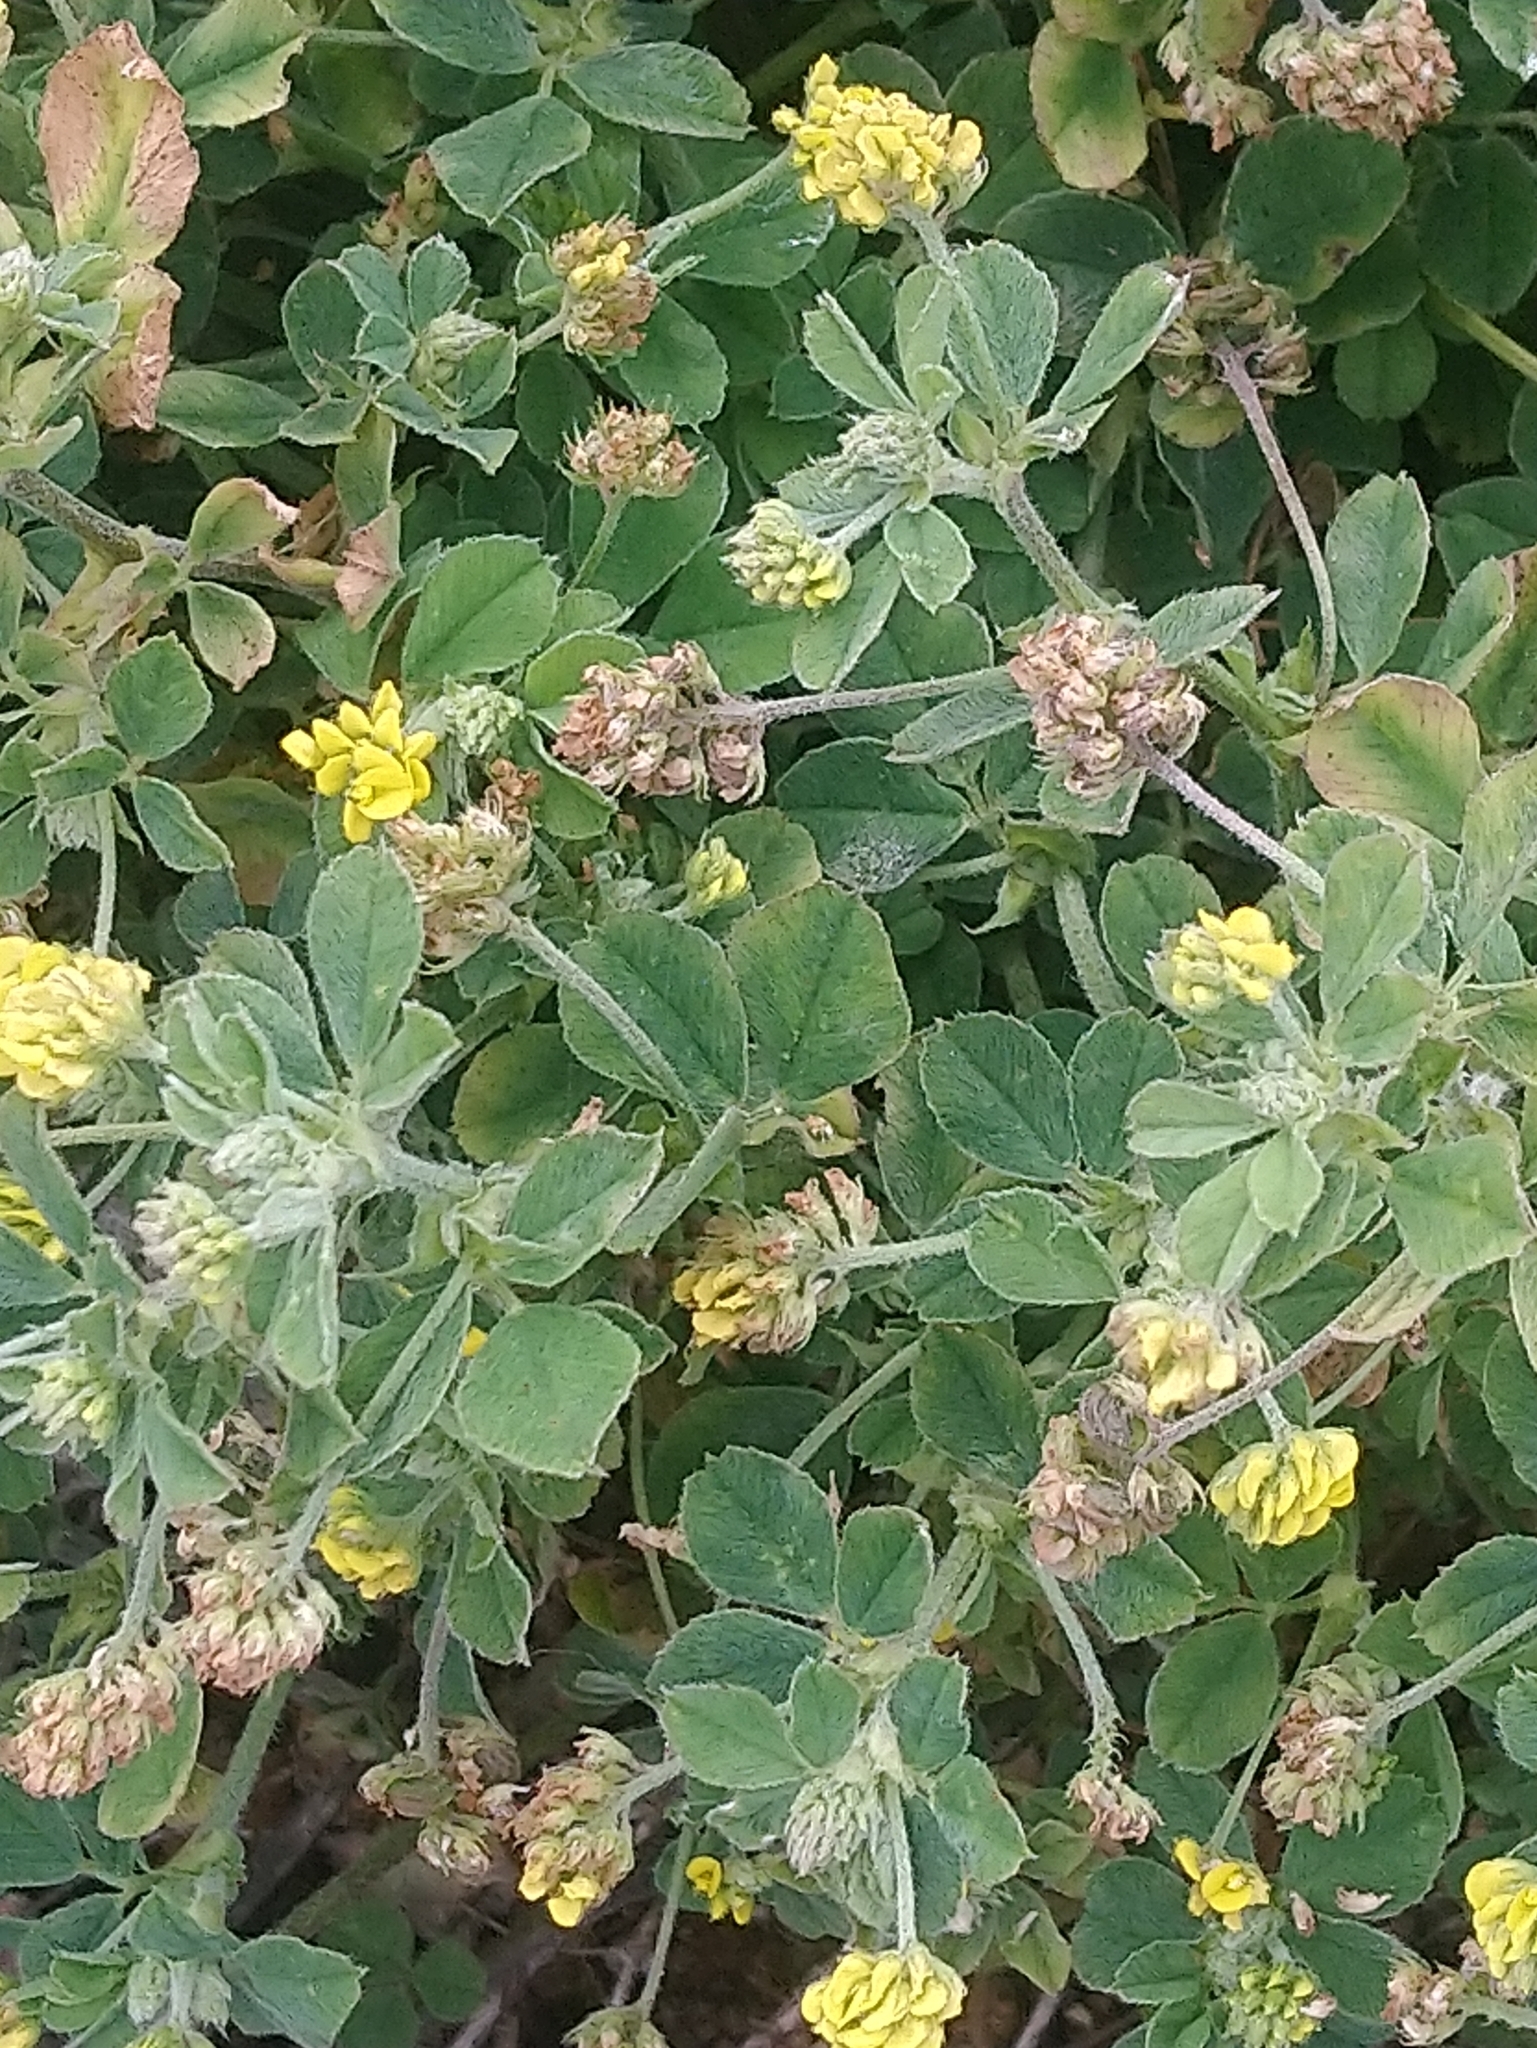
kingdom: Plantae
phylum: Tracheophyta
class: Magnoliopsida
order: Fabales
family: Fabaceae
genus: Medicago
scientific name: Medicago lupulina
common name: Black medick
